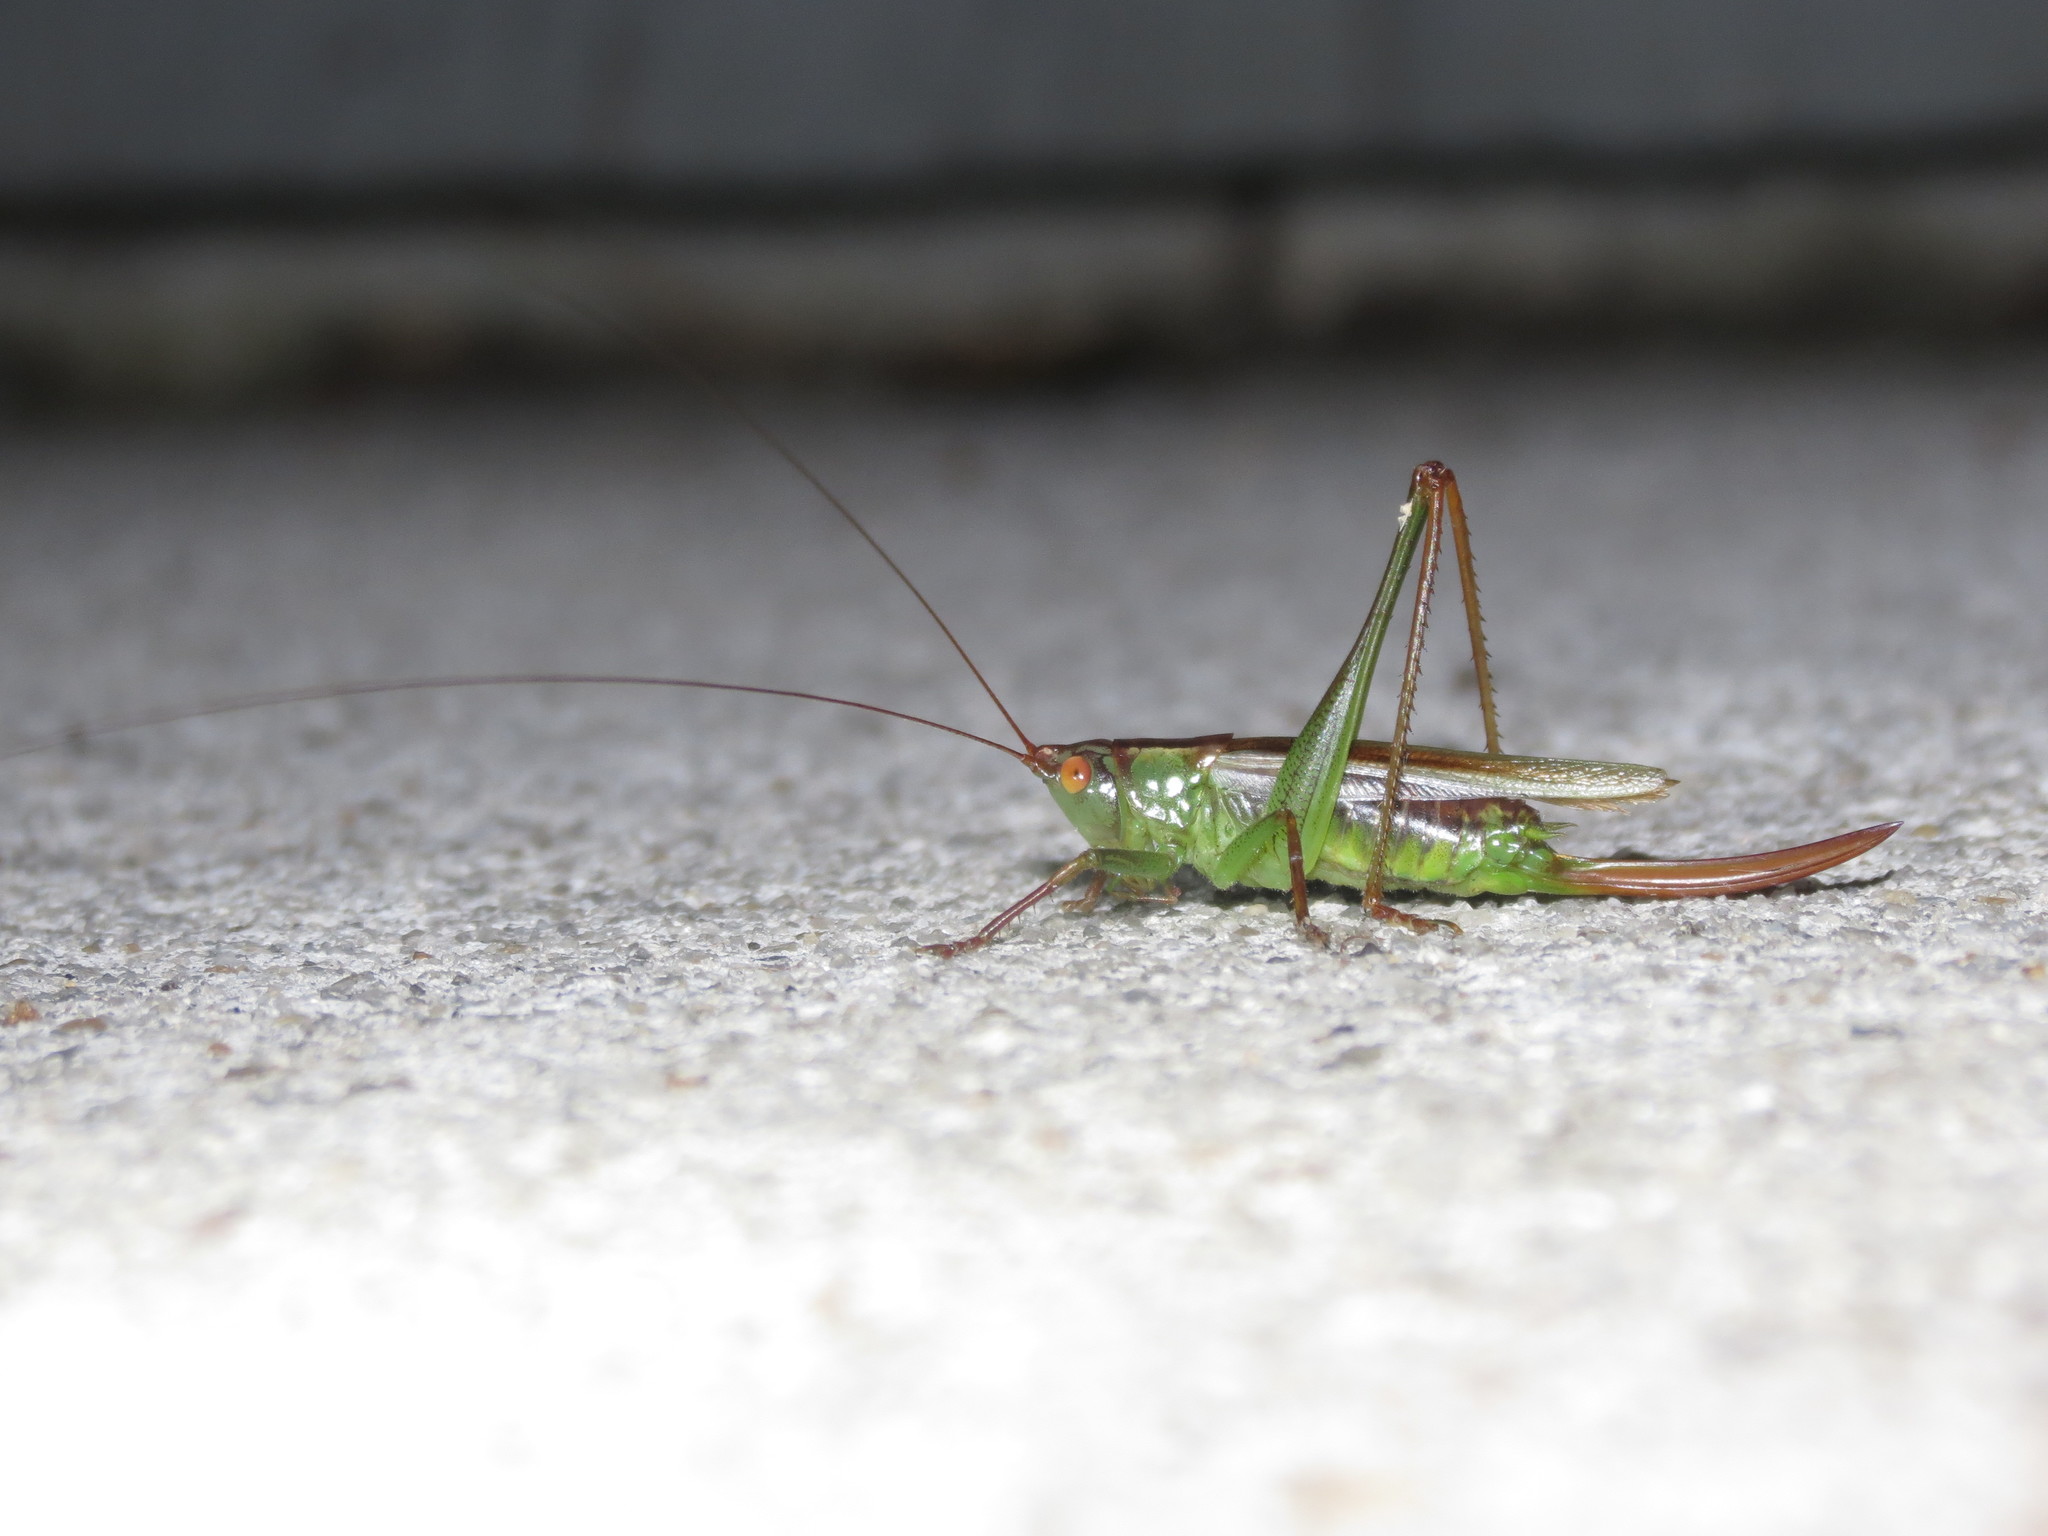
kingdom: Animalia
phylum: Arthropoda
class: Insecta
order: Orthoptera
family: Tettigoniidae
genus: Orchelimum
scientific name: Orchelimum minor
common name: Lesser pine meadow katydid
